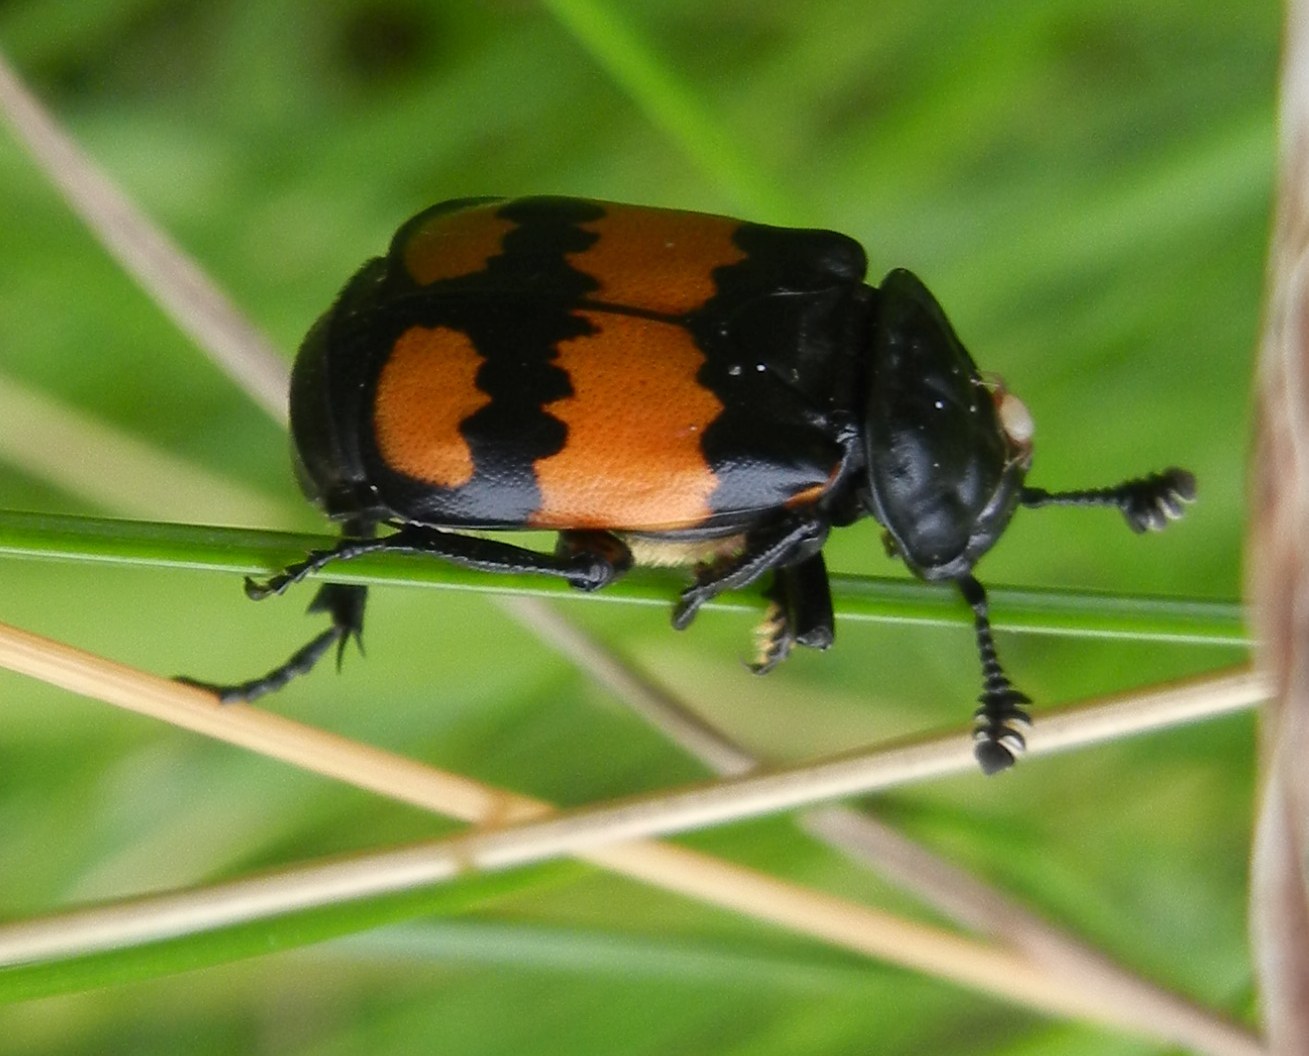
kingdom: Animalia
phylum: Arthropoda
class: Insecta
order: Coleoptera
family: Staphylinidae
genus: Nicrophorus
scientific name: Nicrophorus vespilloides
